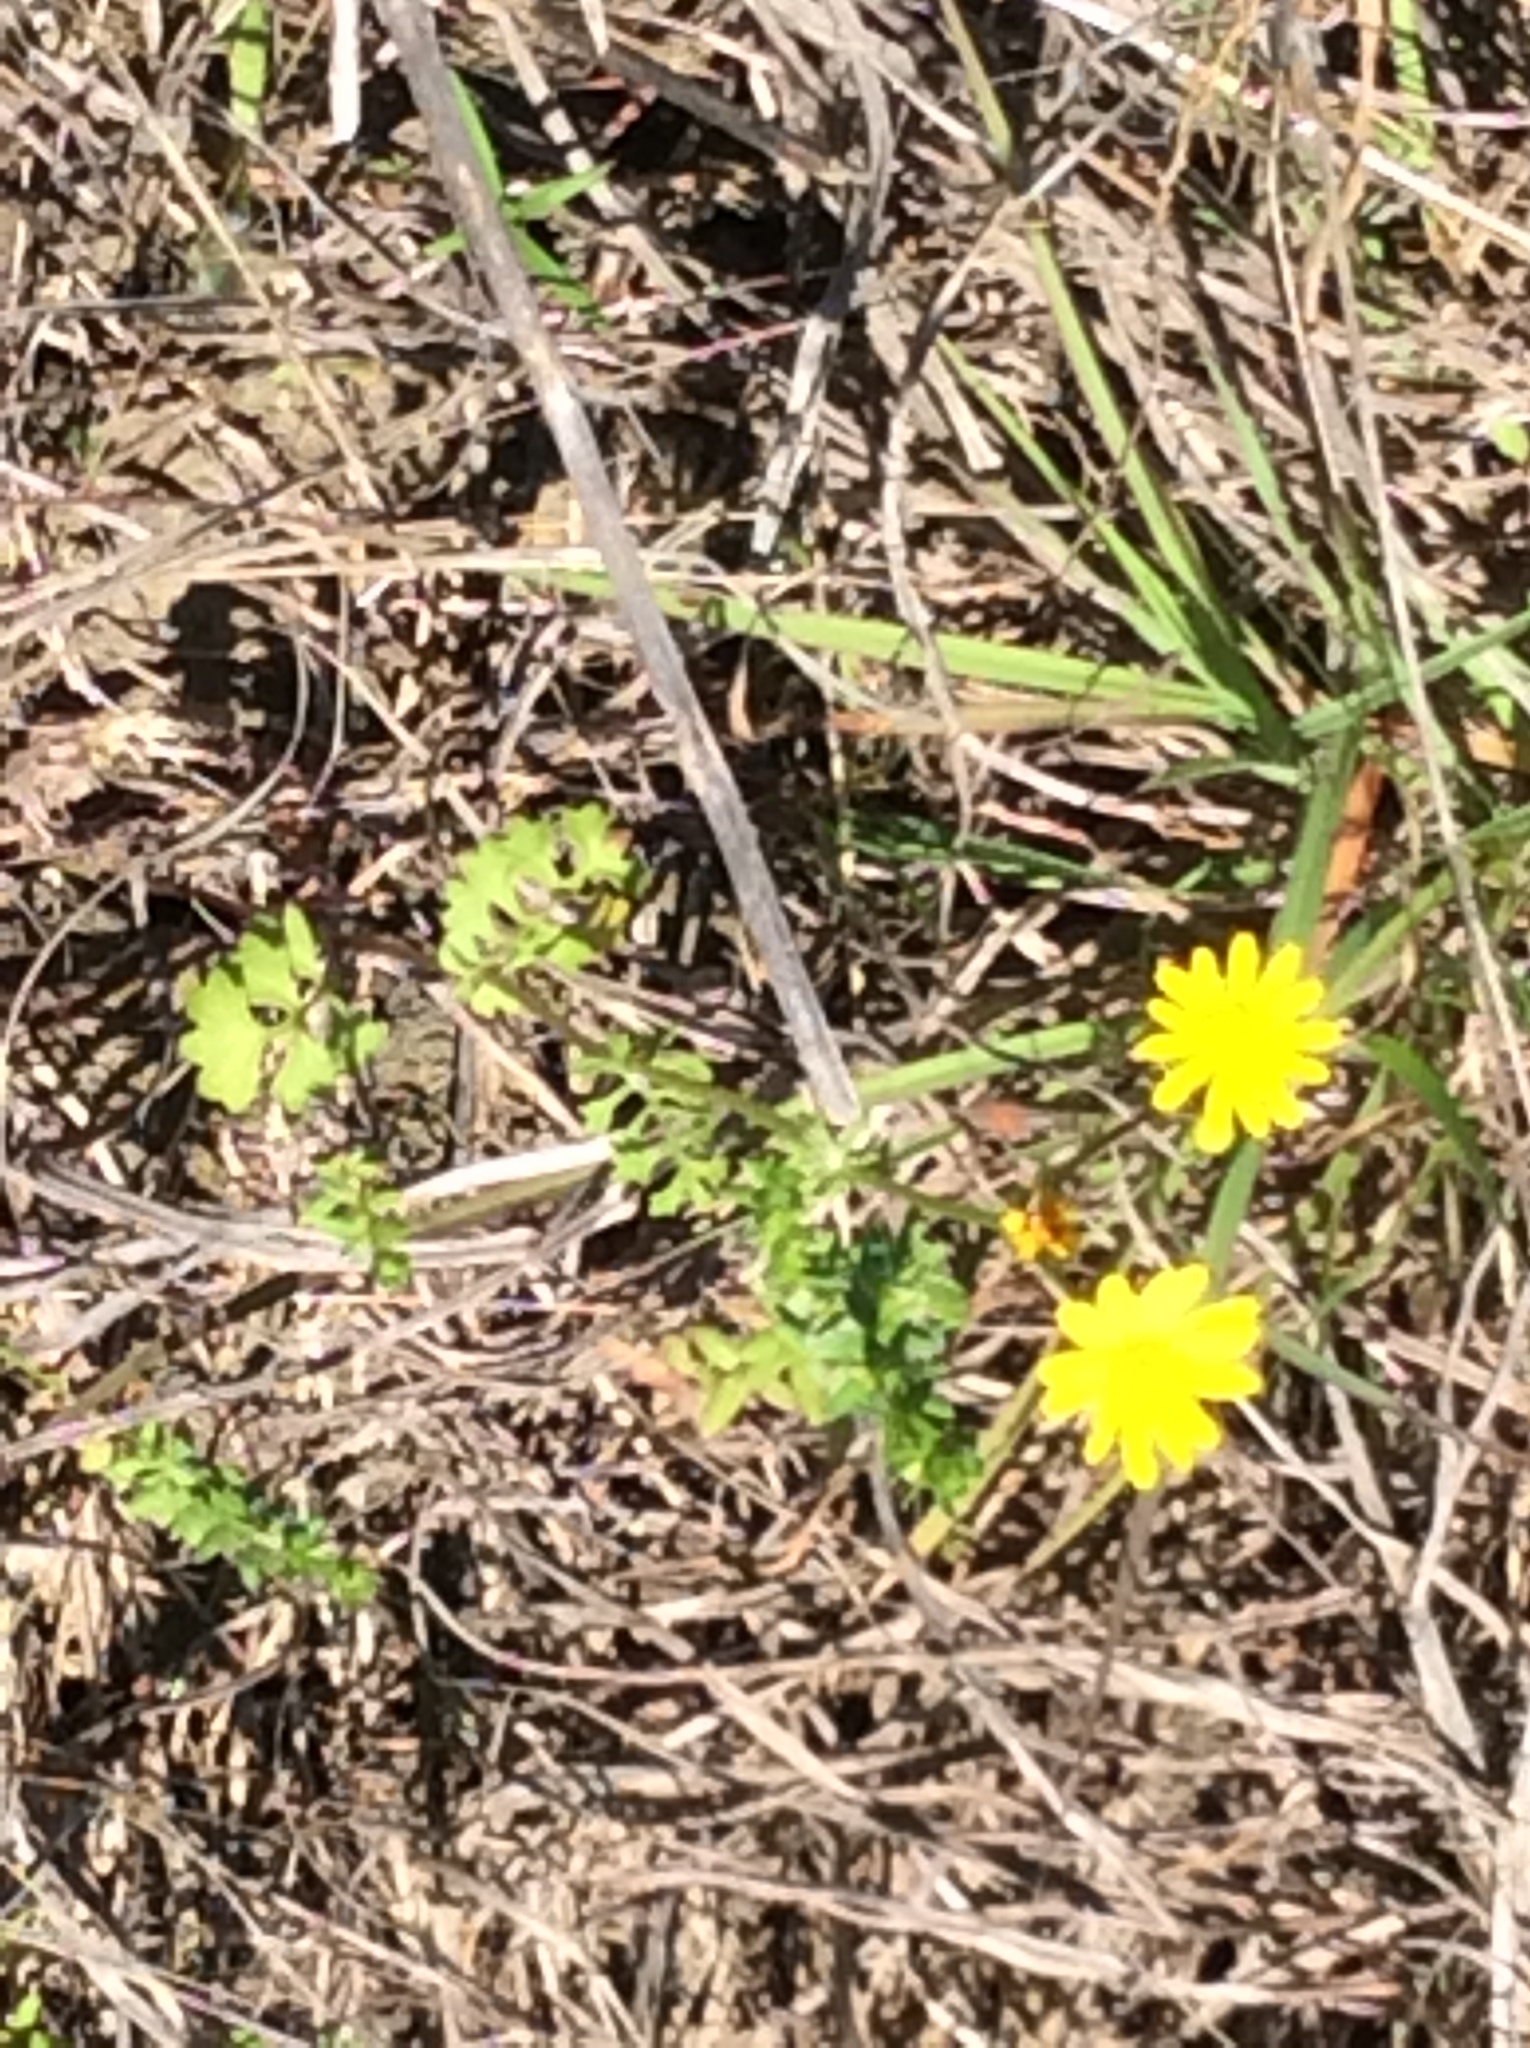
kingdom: Plantae
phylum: Tracheophyta
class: Magnoliopsida
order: Asterales
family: Asteraceae
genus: Packera
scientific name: Packera tampicana
